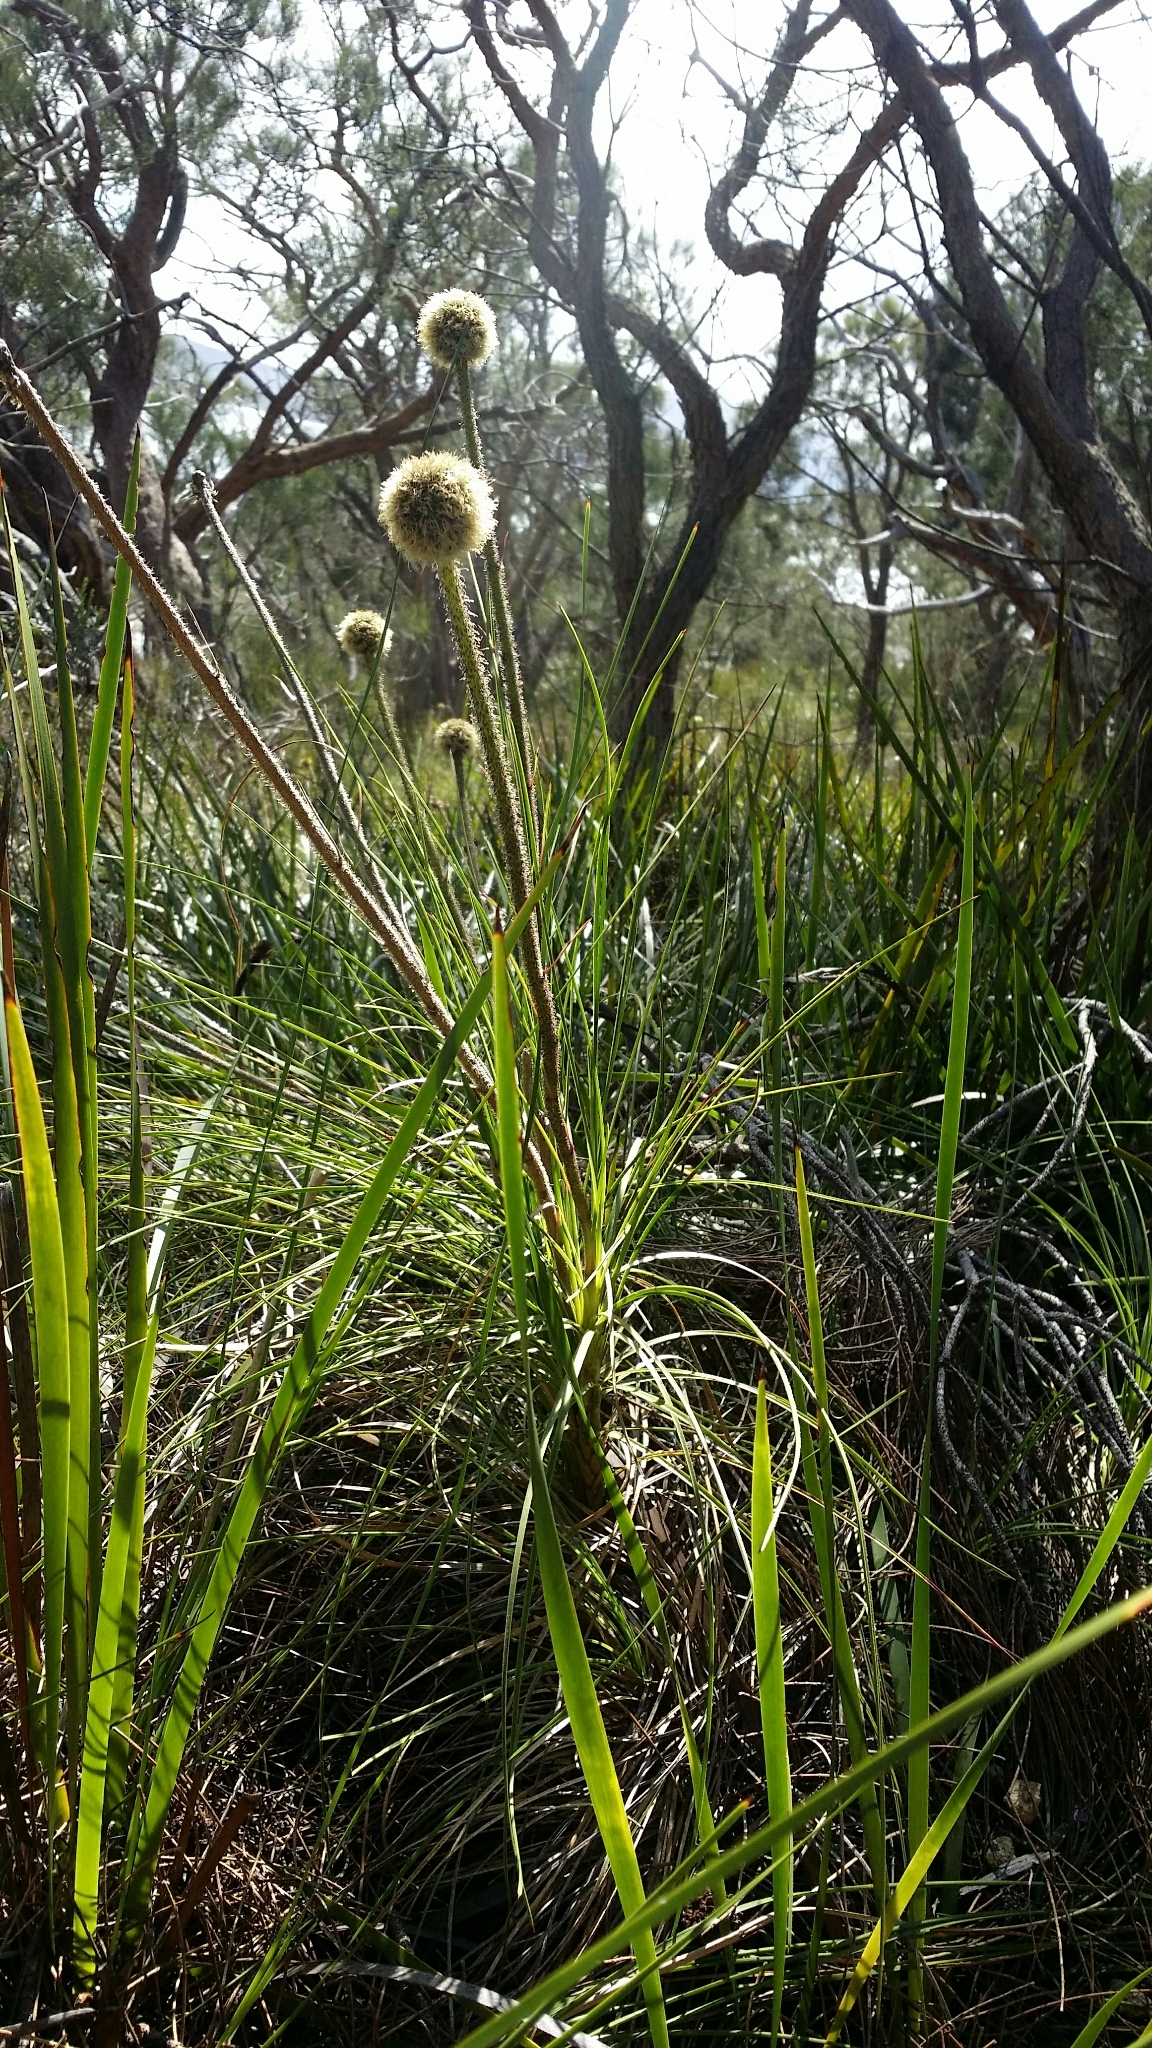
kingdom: Plantae
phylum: Tracheophyta
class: Liliopsida
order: Arecales
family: Dasypogonaceae
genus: Dasypogon
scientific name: Dasypogon bromeliifolius
